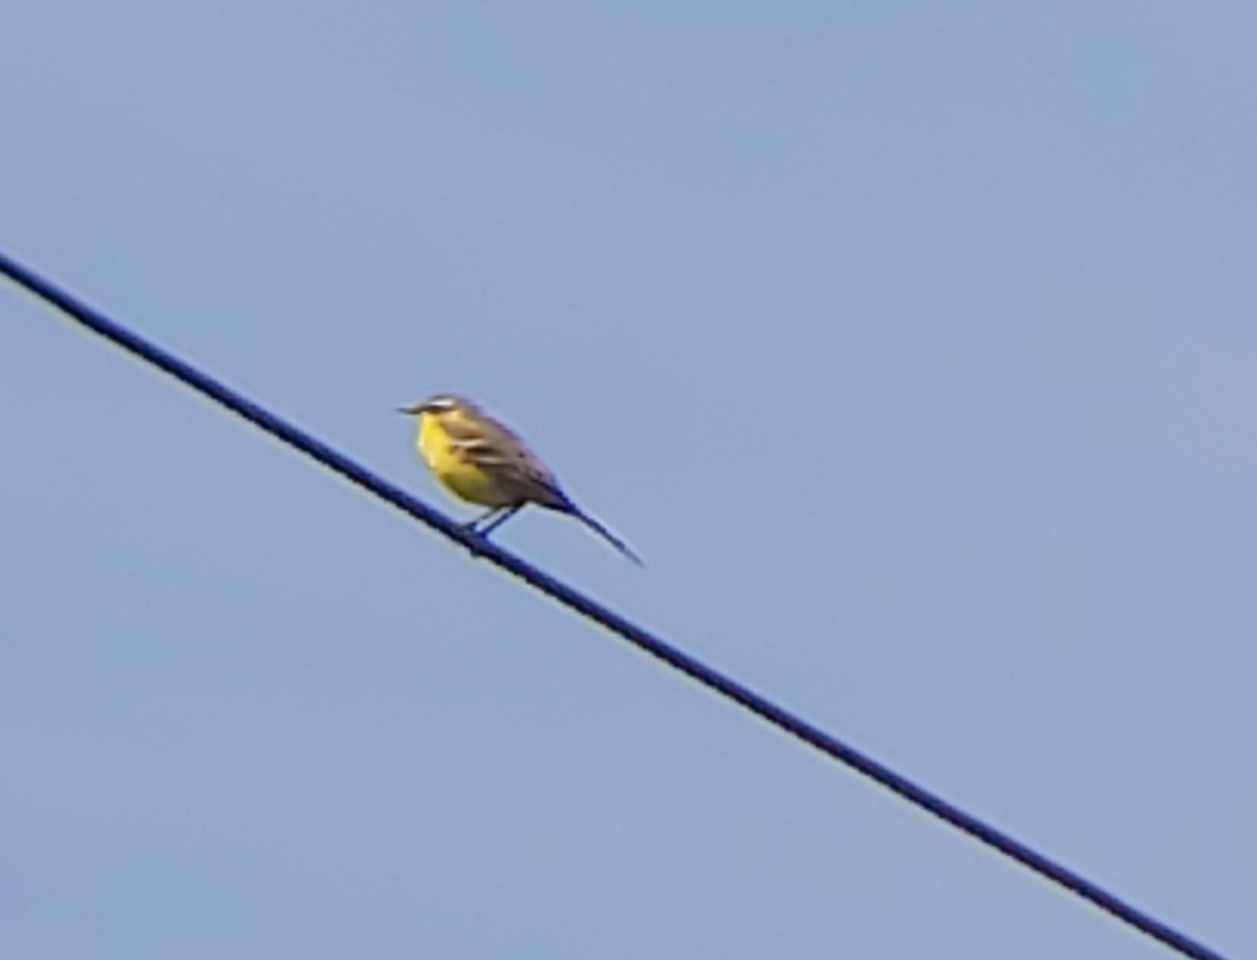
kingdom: Animalia
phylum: Chordata
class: Aves
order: Passeriformes
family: Motacillidae
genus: Motacilla
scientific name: Motacilla flava
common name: Western yellow wagtail
